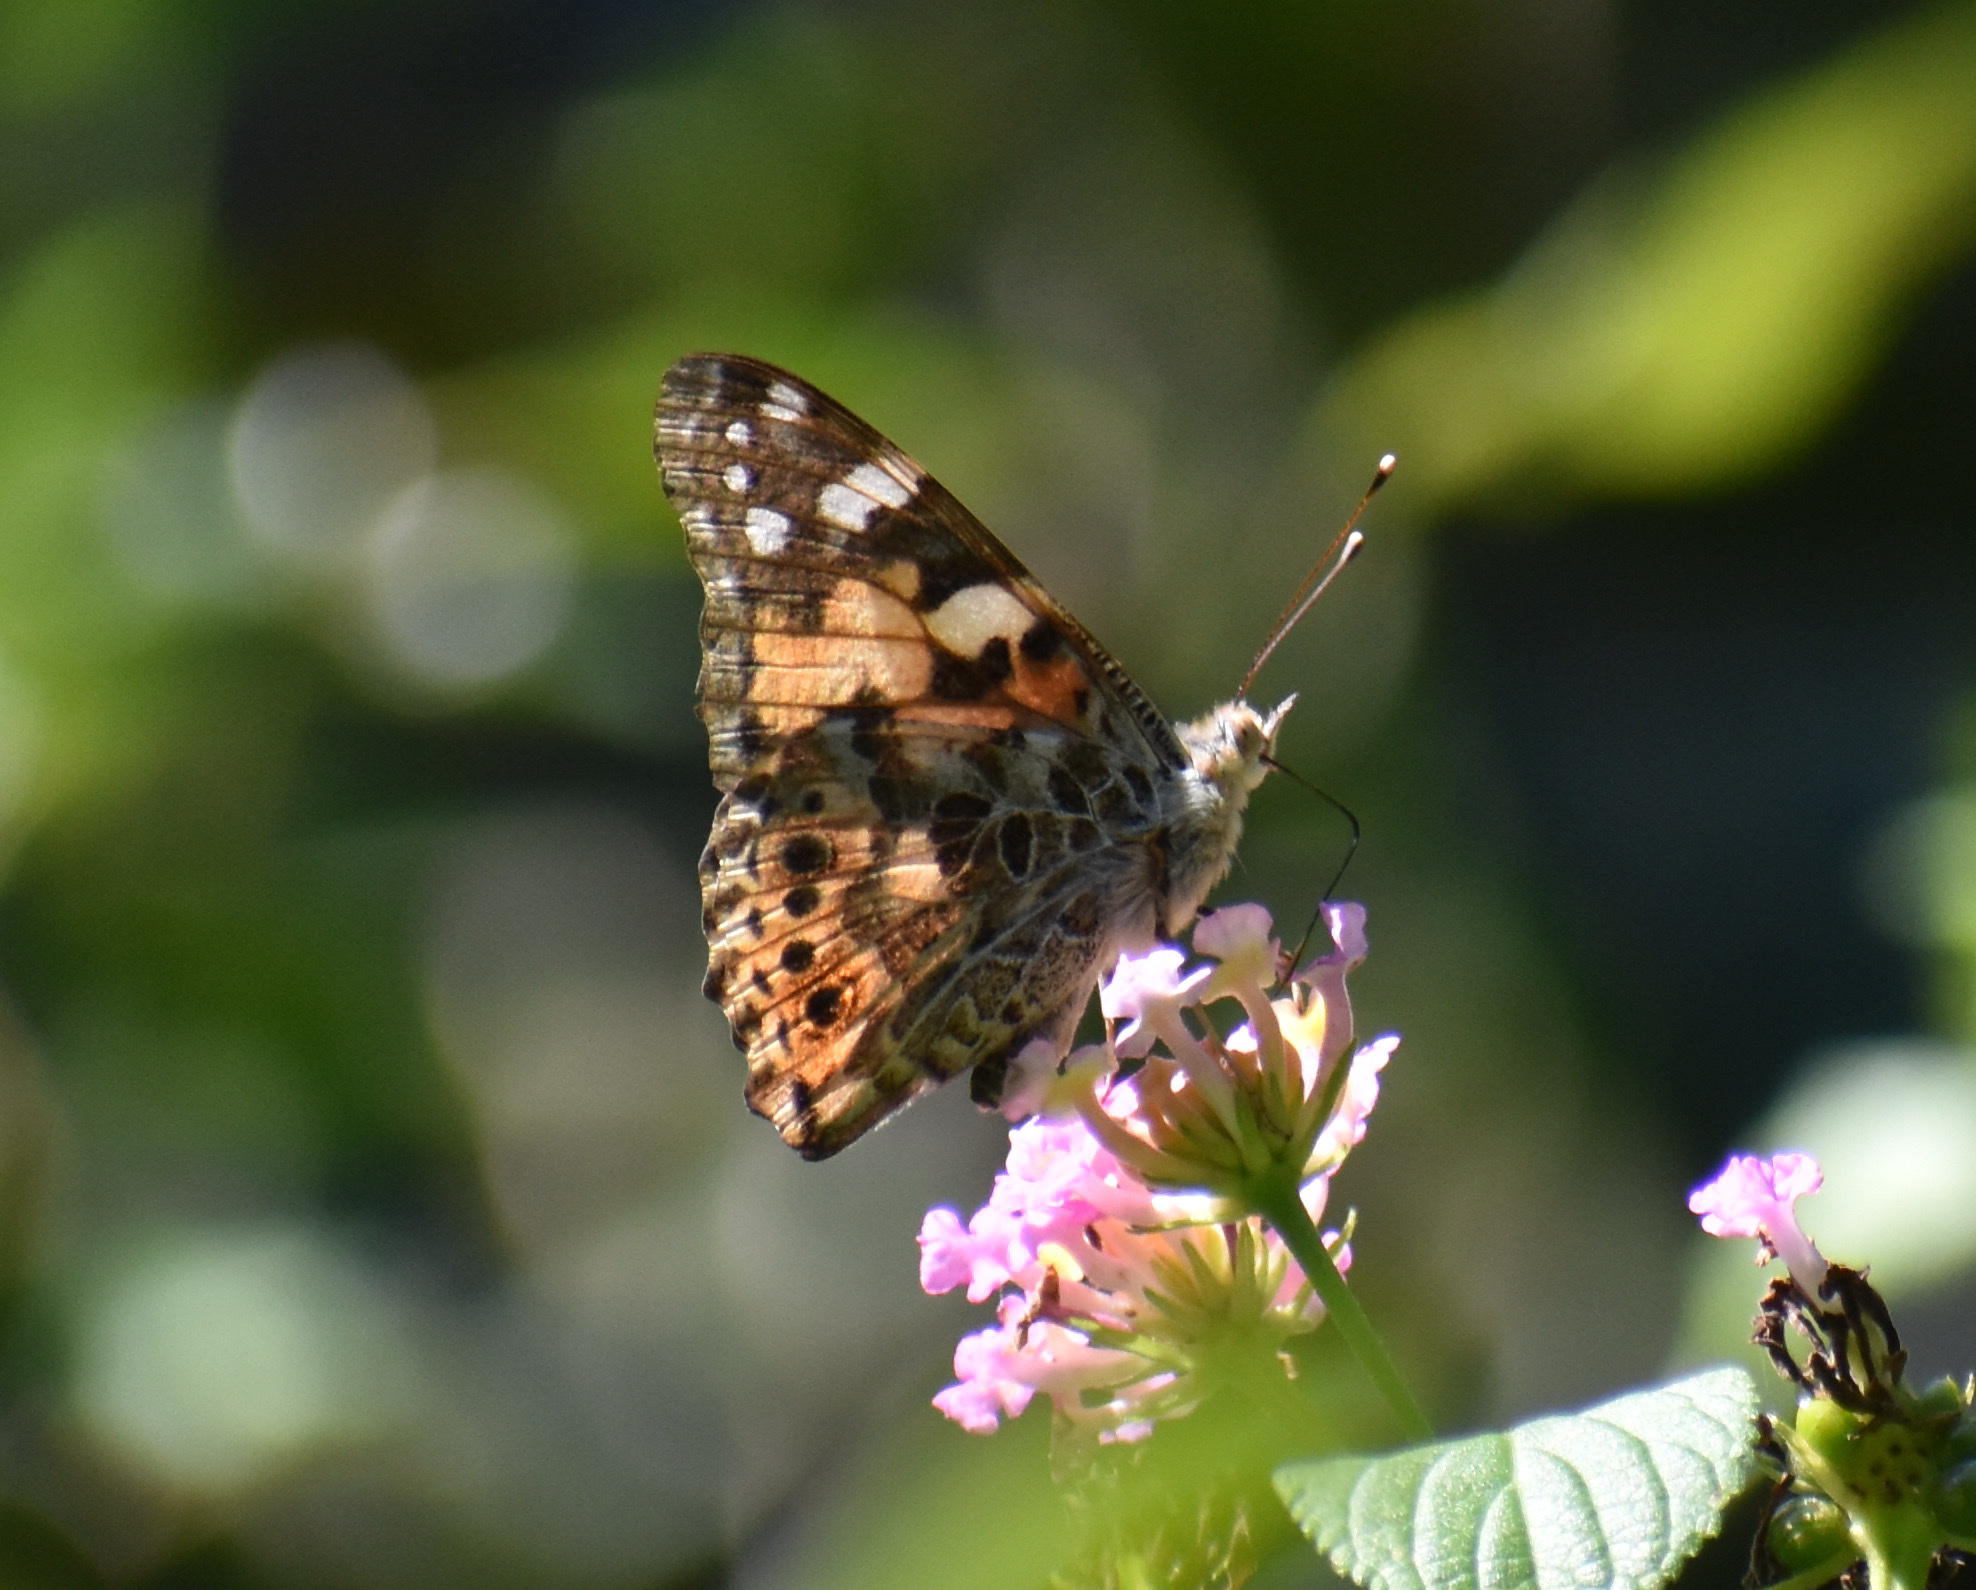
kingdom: Animalia
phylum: Arthropoda
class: Insecta
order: Lepidoptera
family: Nymphalidae
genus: Vanessa
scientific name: Vanessa cardui
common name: Painted lady
